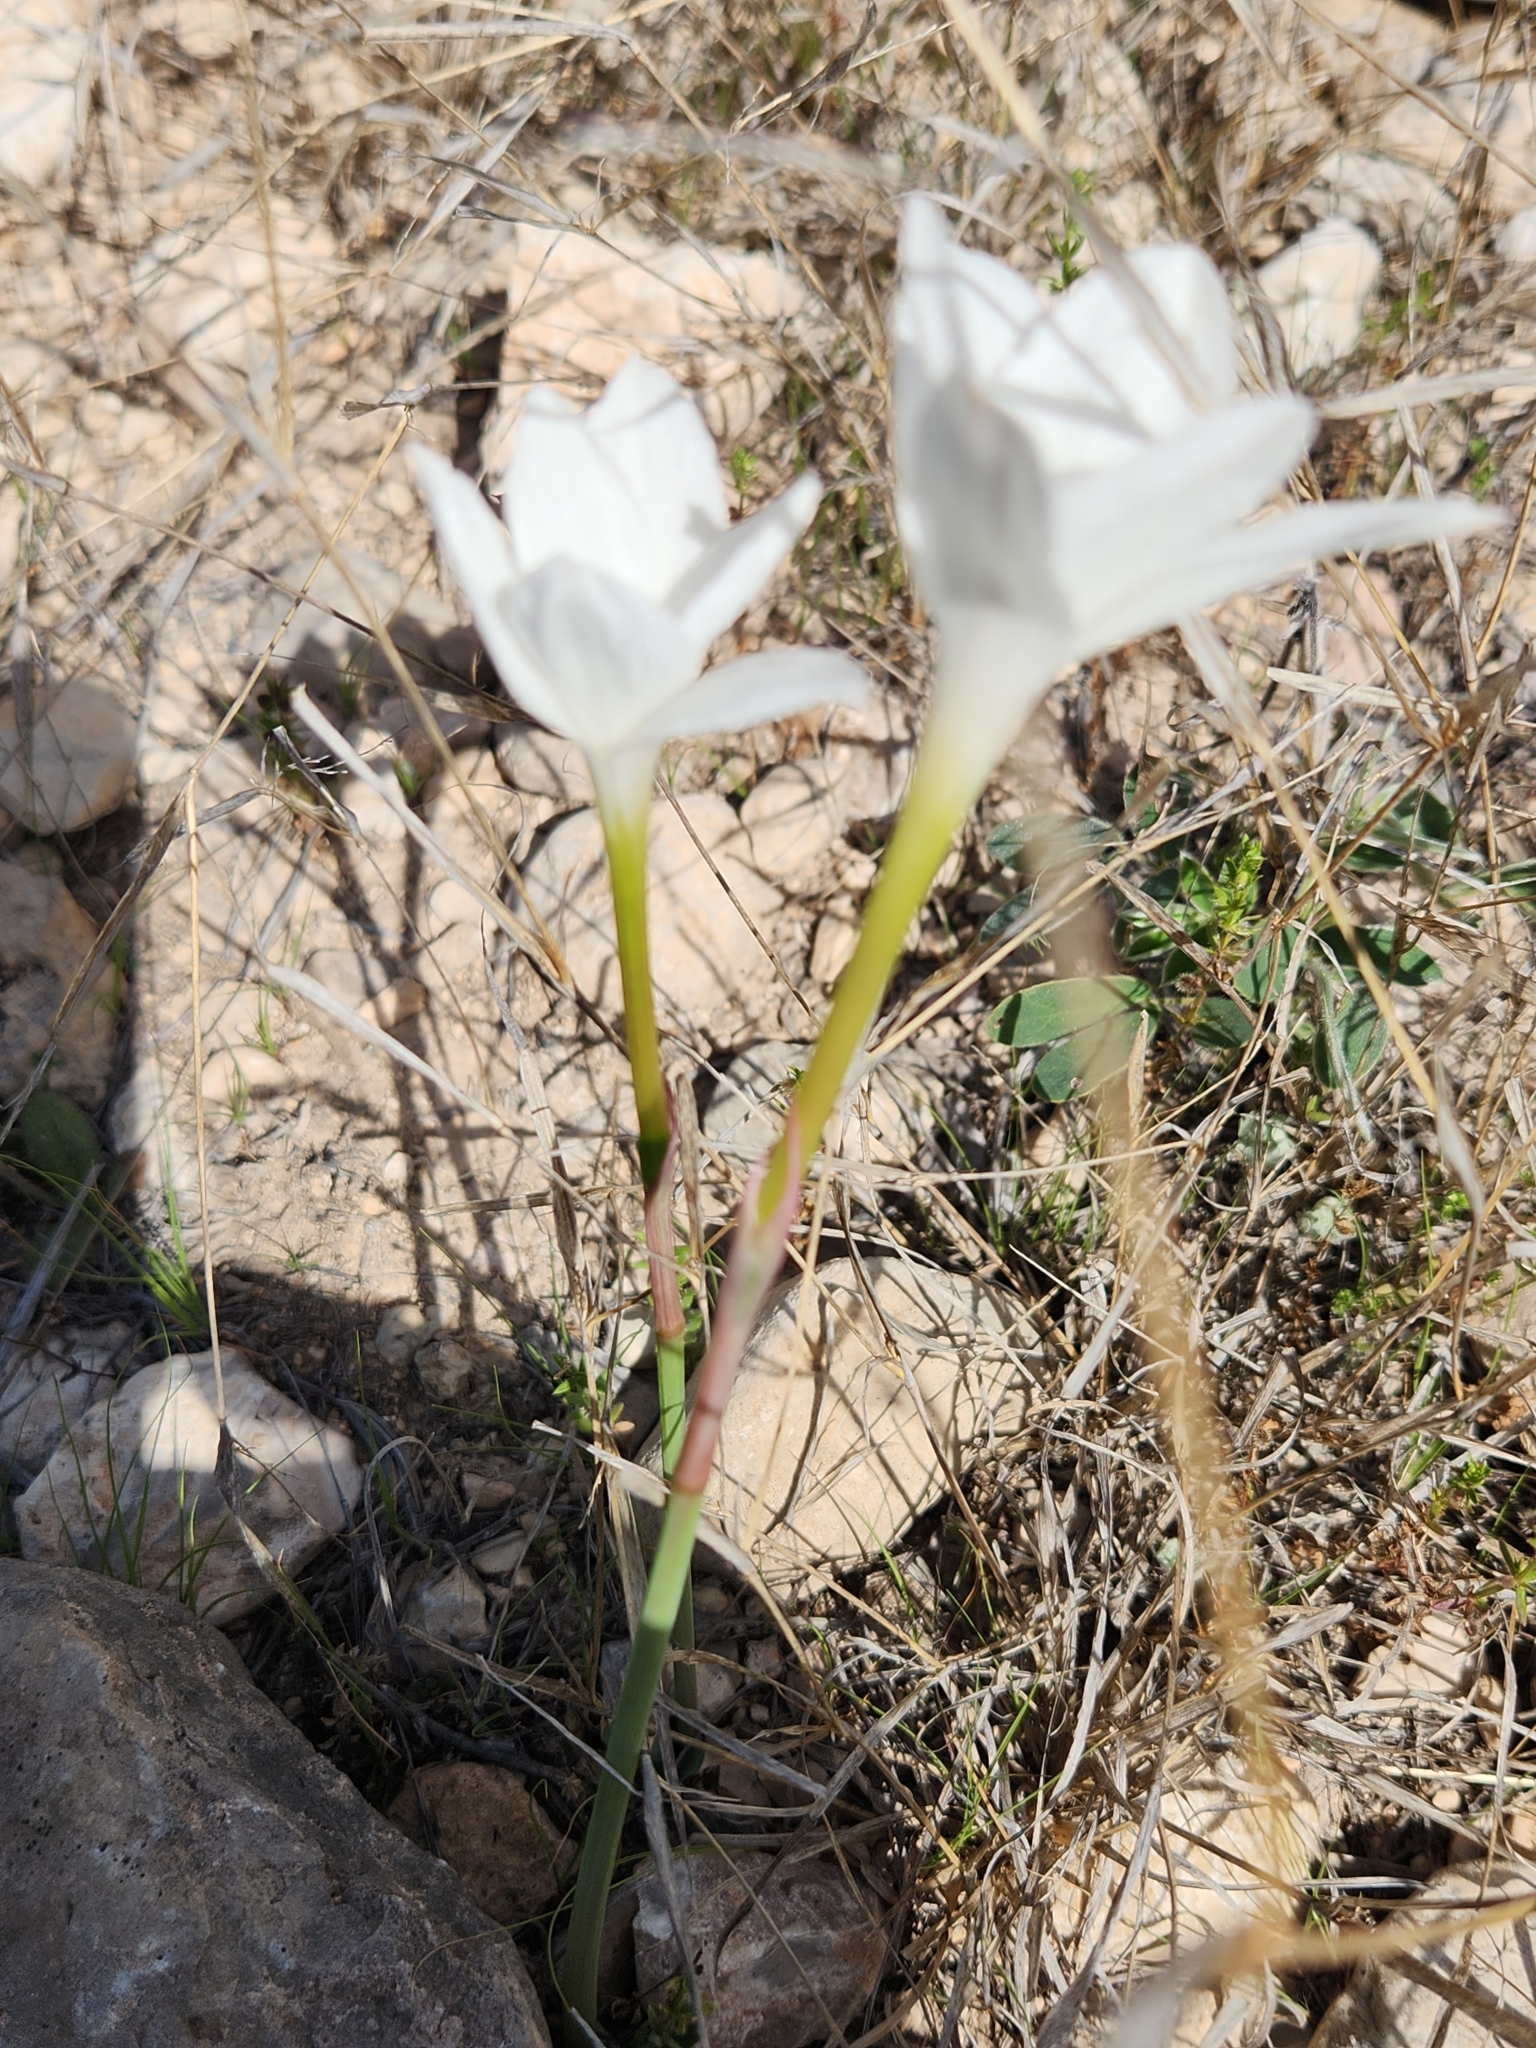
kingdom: Plantae
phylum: Tracheophyta
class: Liliopsida
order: Asparagales
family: Amaryllidaceae
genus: Zephyranthes
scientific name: Zephyranthes drummondii
